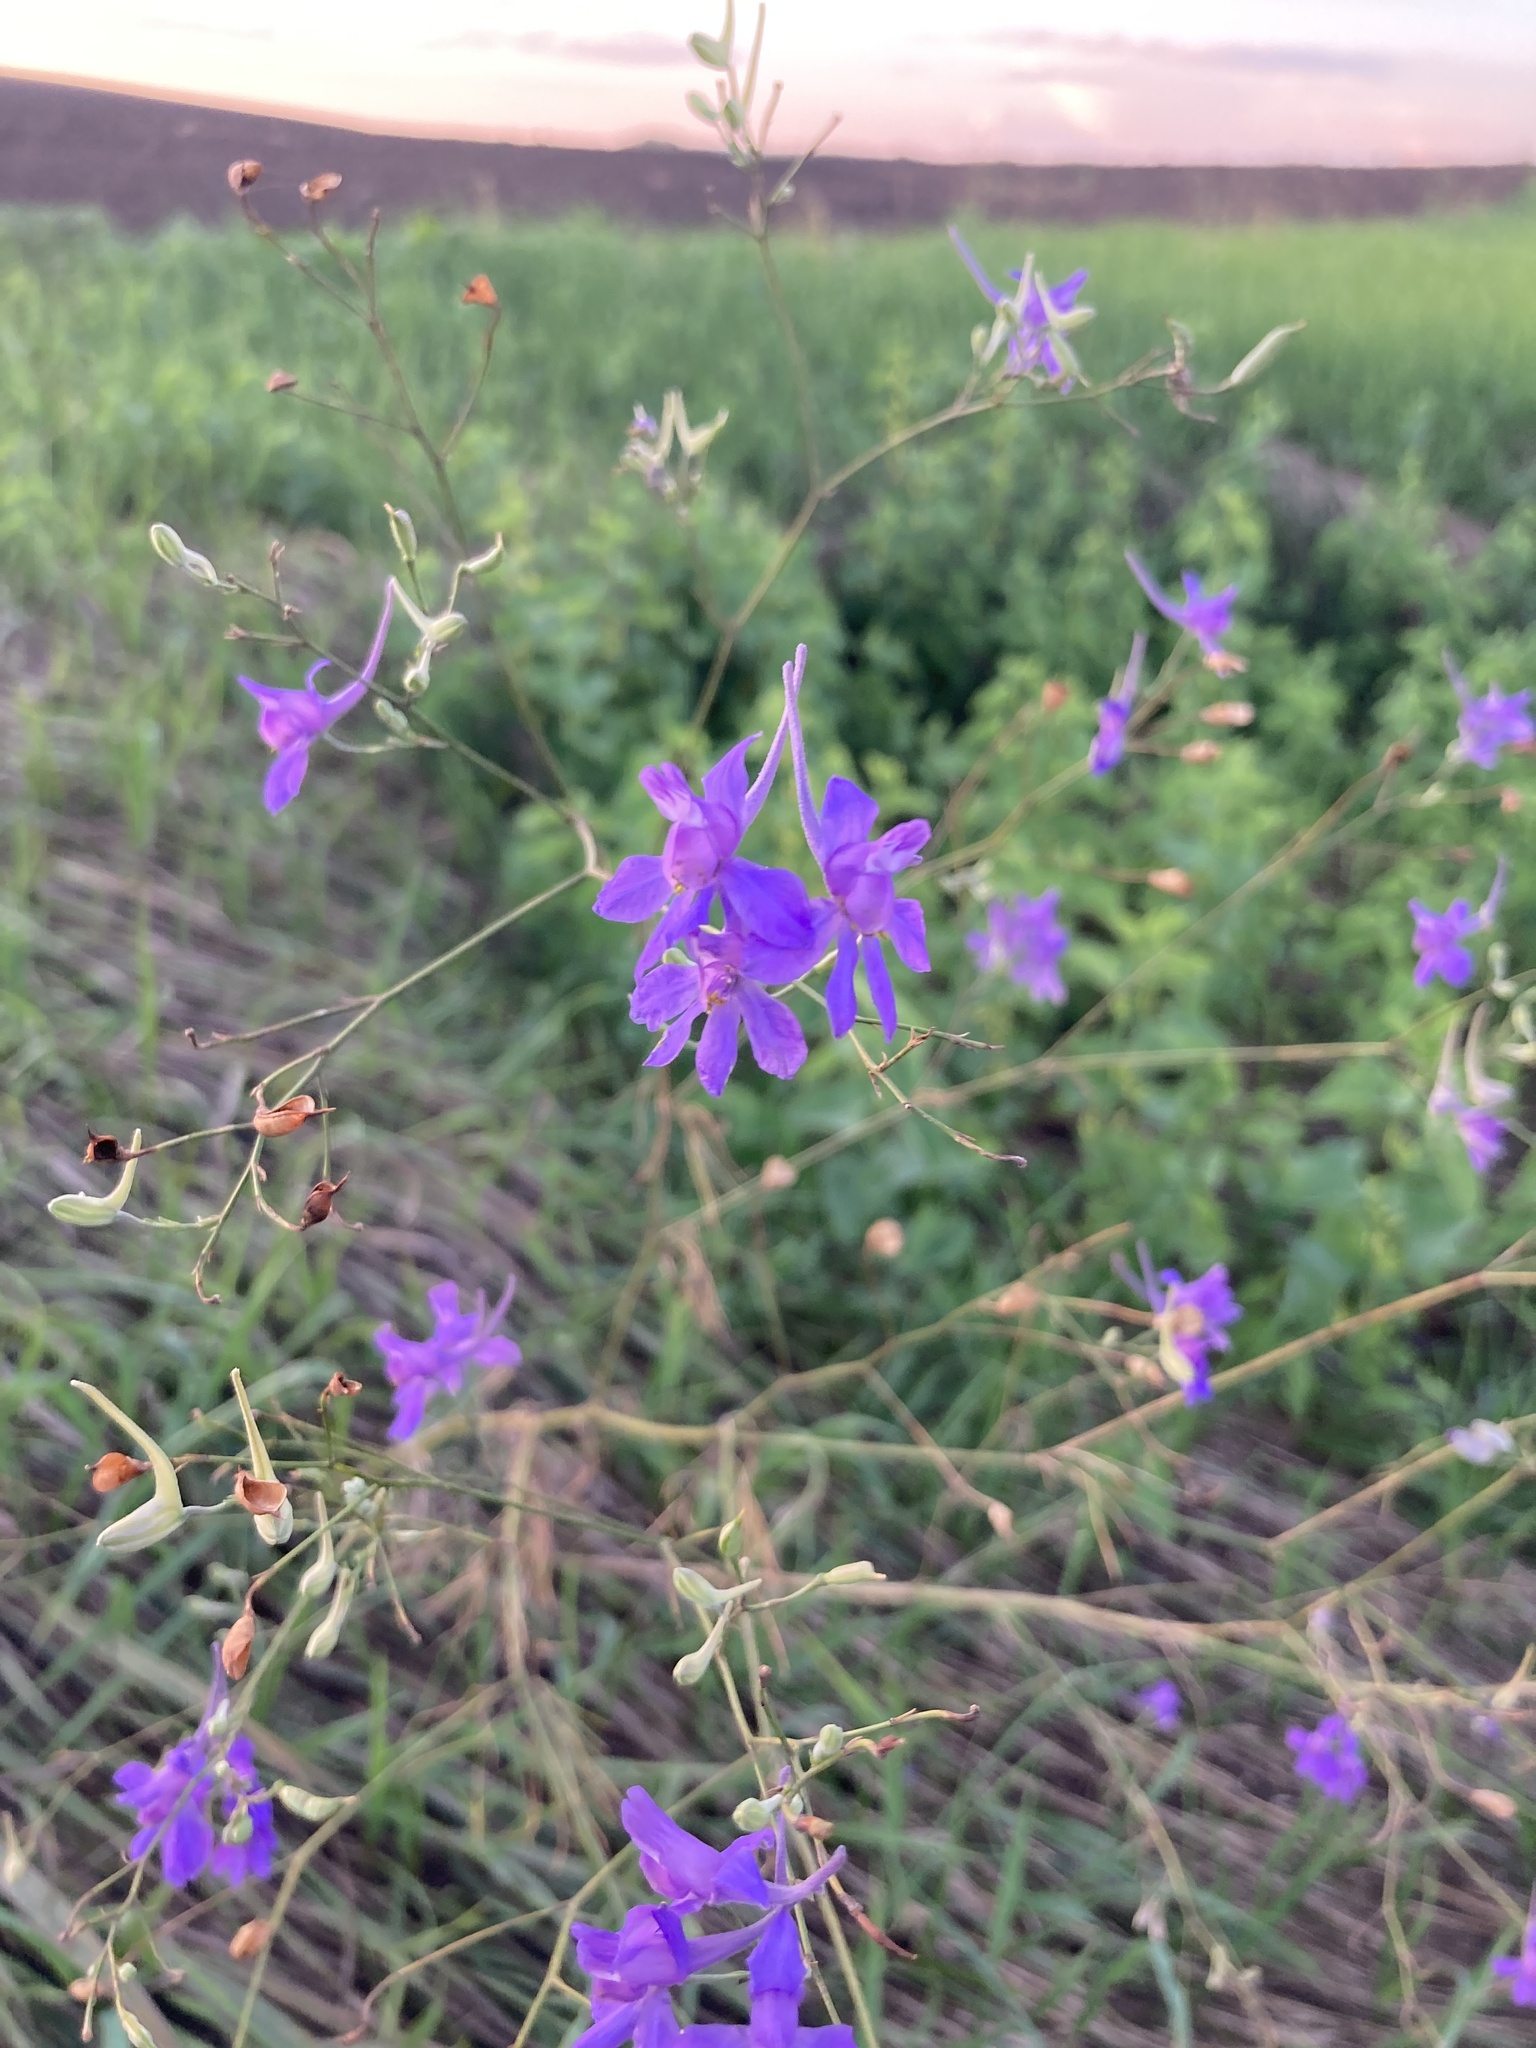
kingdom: Plantae
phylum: Tracheophyta
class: Magnoliopsida
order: Ranunculales
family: Ranunculaceae
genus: Delphinium
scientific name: Delphinium consolida
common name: Branching larkspur
